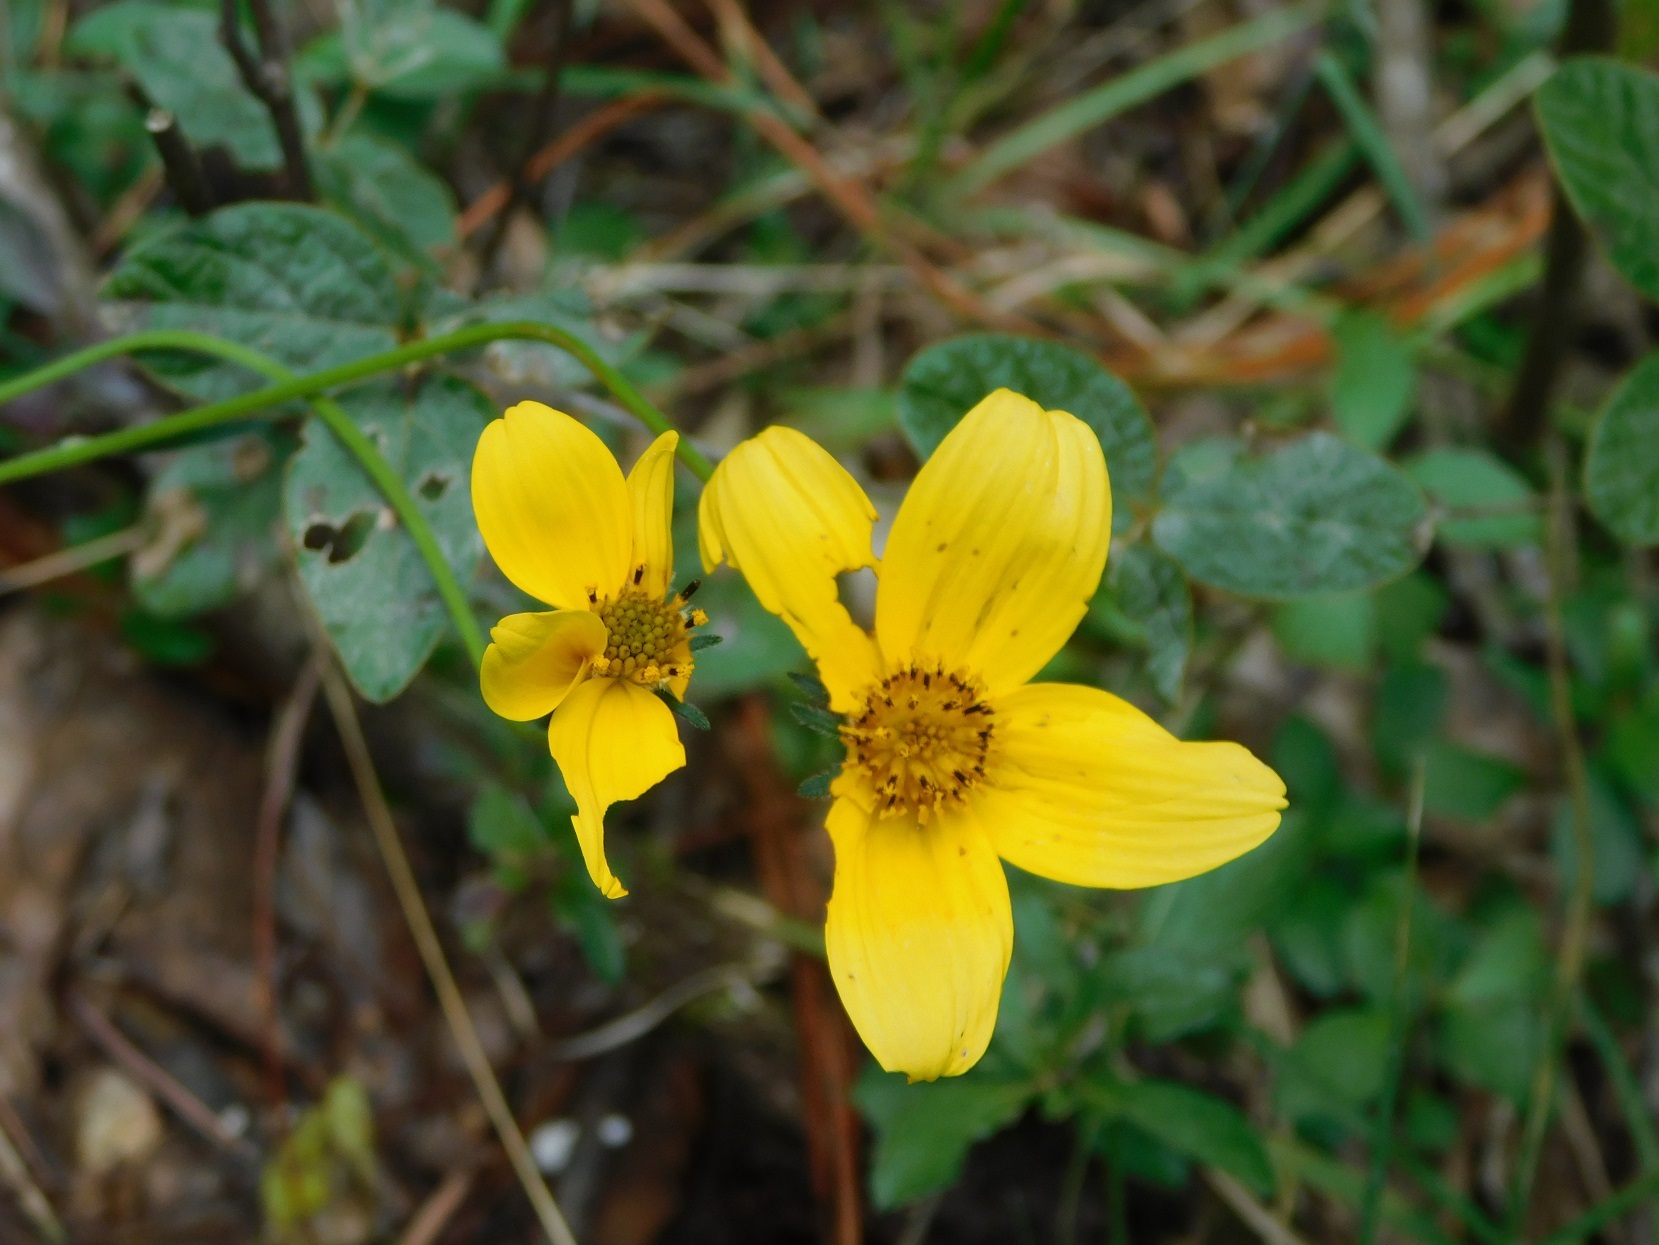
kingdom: Plantae
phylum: Tracheophyta
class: Magnoliopsida
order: Asterales
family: Asteraceae
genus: Bidens
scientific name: Bidens triplinervia
